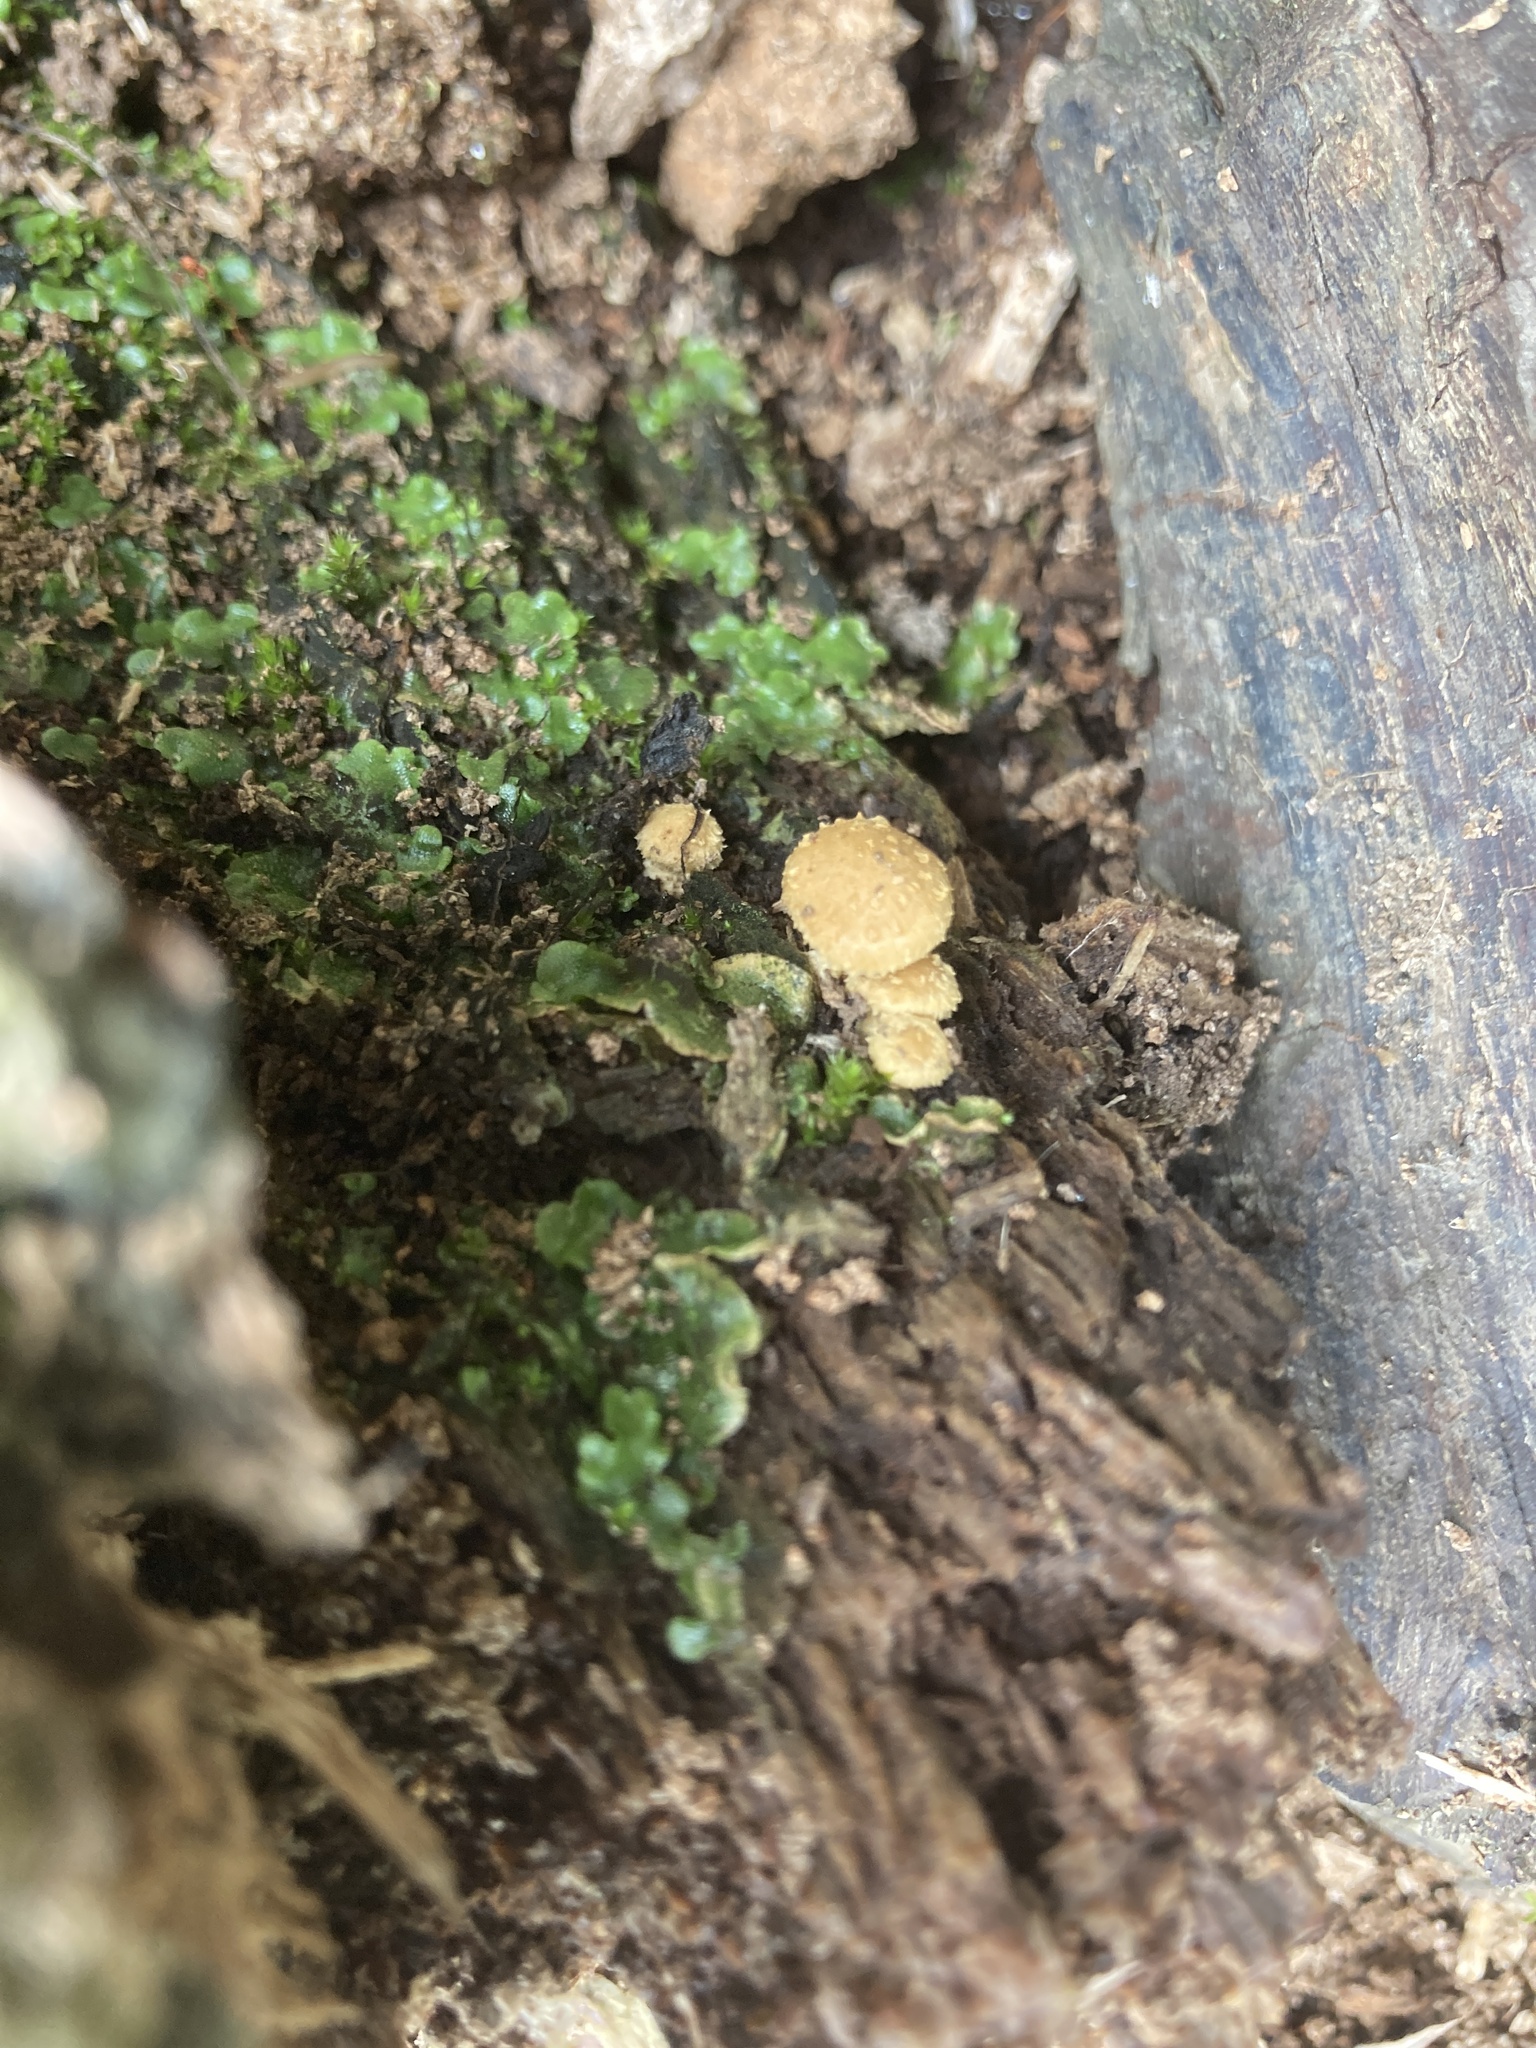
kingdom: Fungi
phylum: Basidiomycota
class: Agaricomycetes
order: Agaricales
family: Strophariaceae
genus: Pholiota
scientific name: Pholiota subflammans
